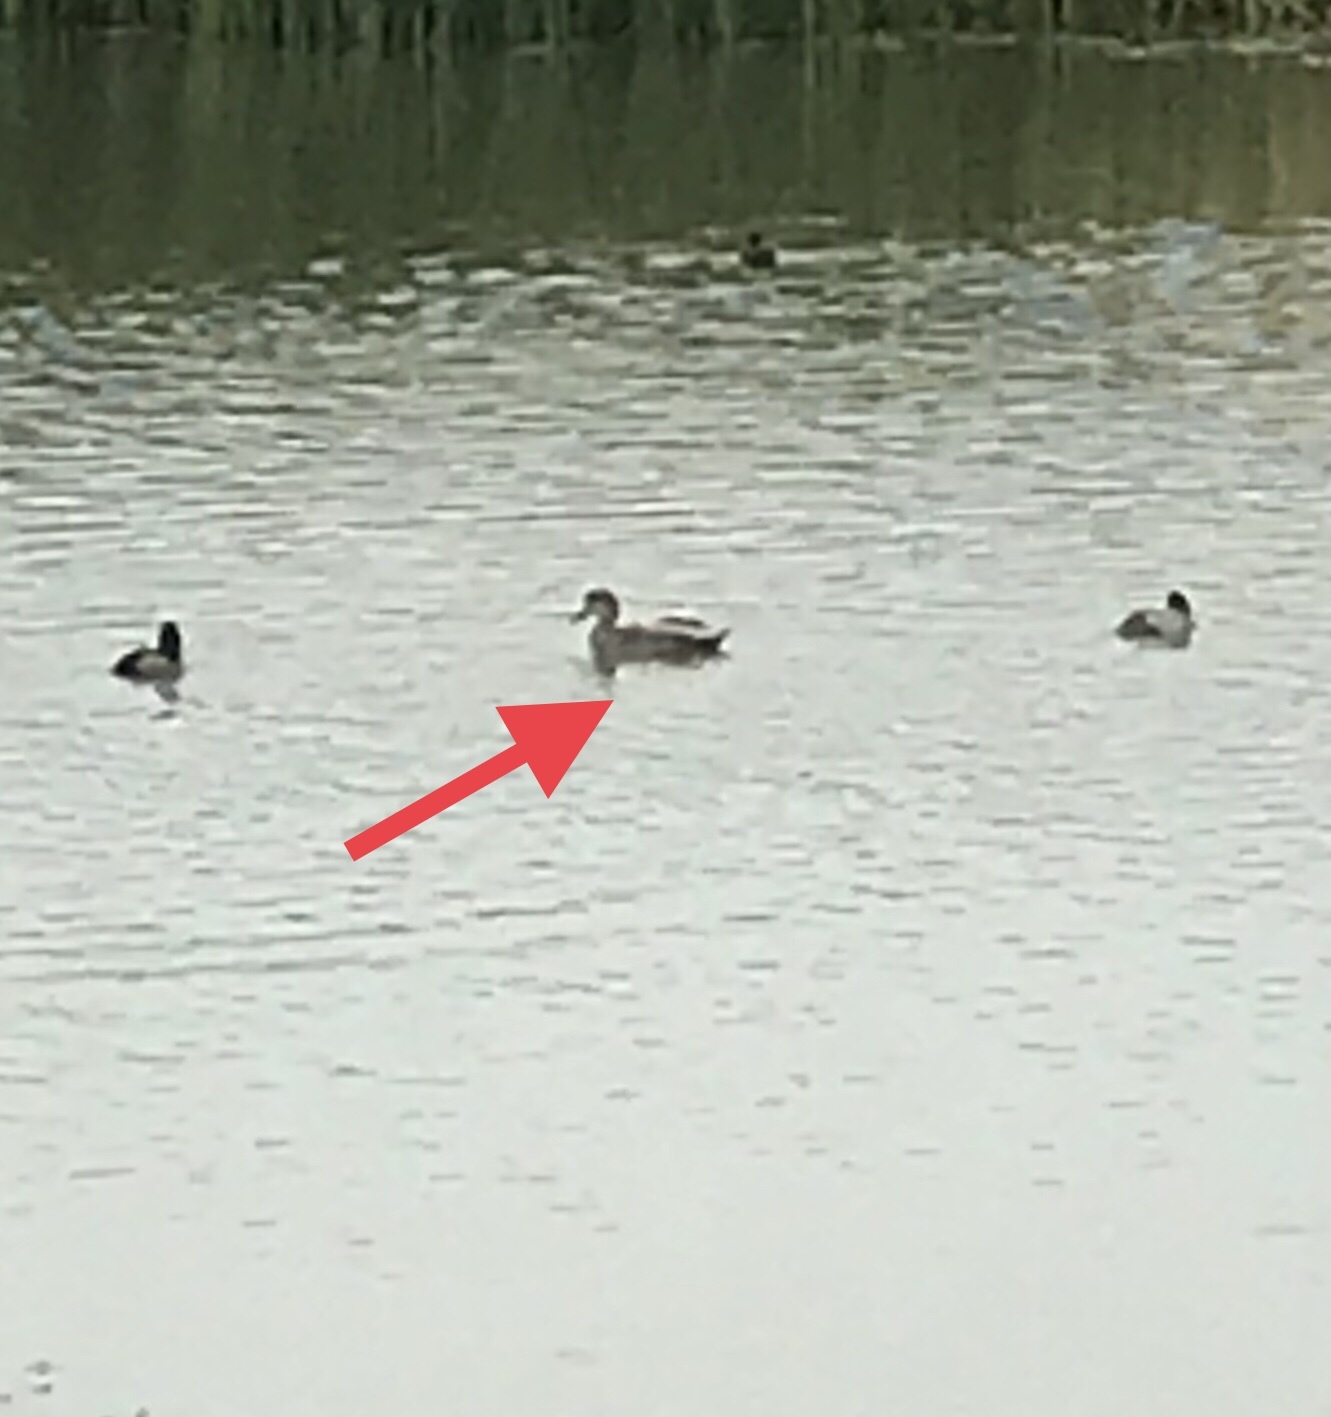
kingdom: Animalia
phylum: Chordata
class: Aves
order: Anseriformes
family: Anatidae
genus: Mareca
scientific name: Mareca strepera
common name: Gadwall
